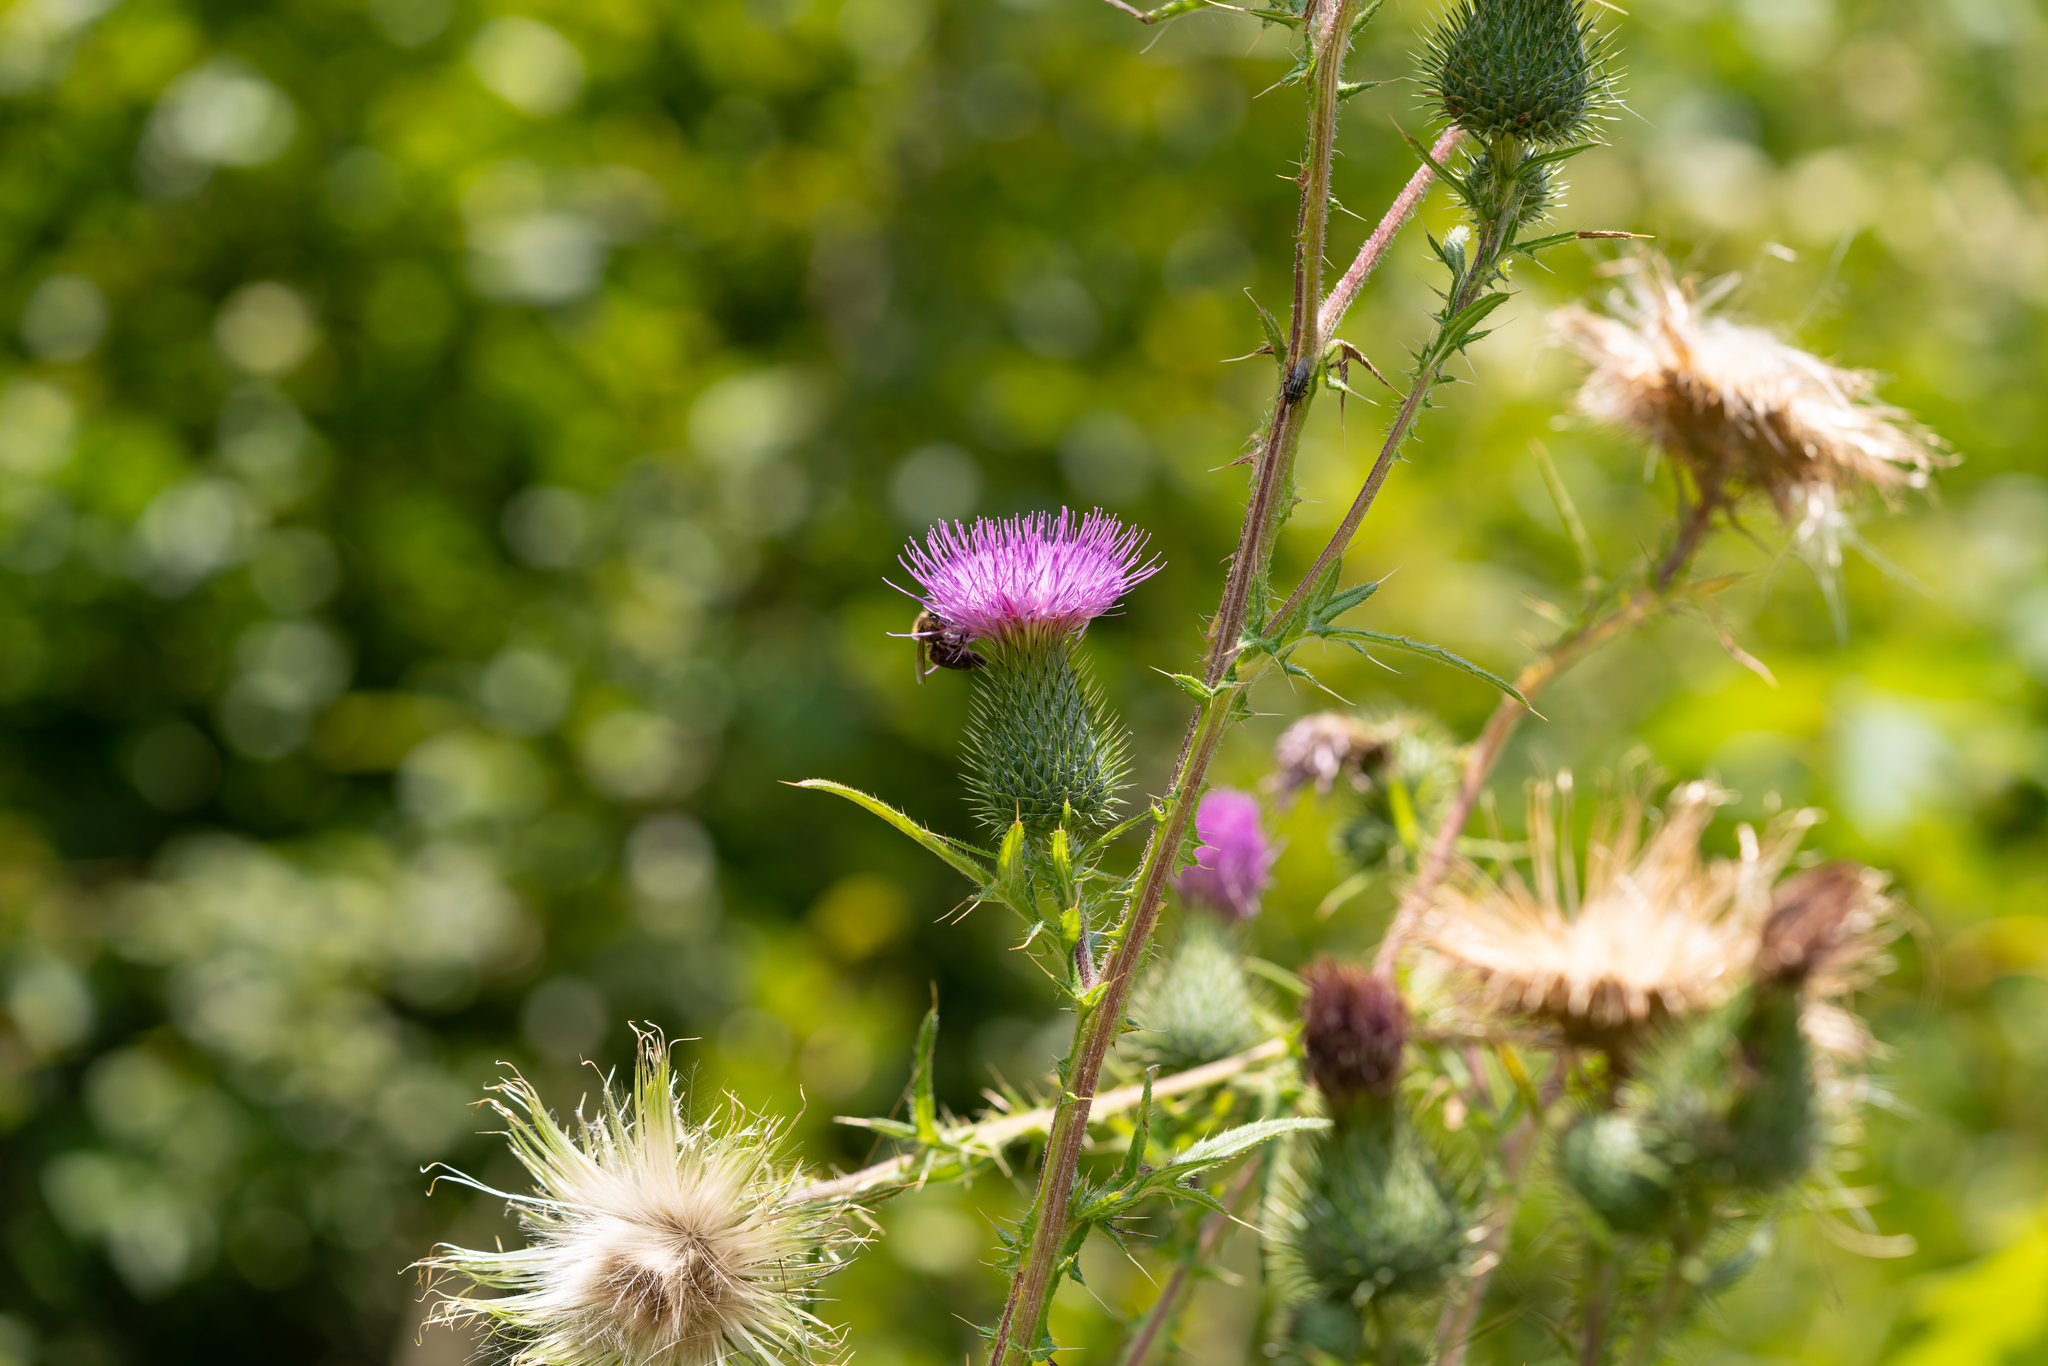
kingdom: Plantae
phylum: Tracheophyta
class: Magnoliopsida
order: Asterales
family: Asteraceae
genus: Cirsium
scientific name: Cirsium vulgare
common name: Bull thistle
